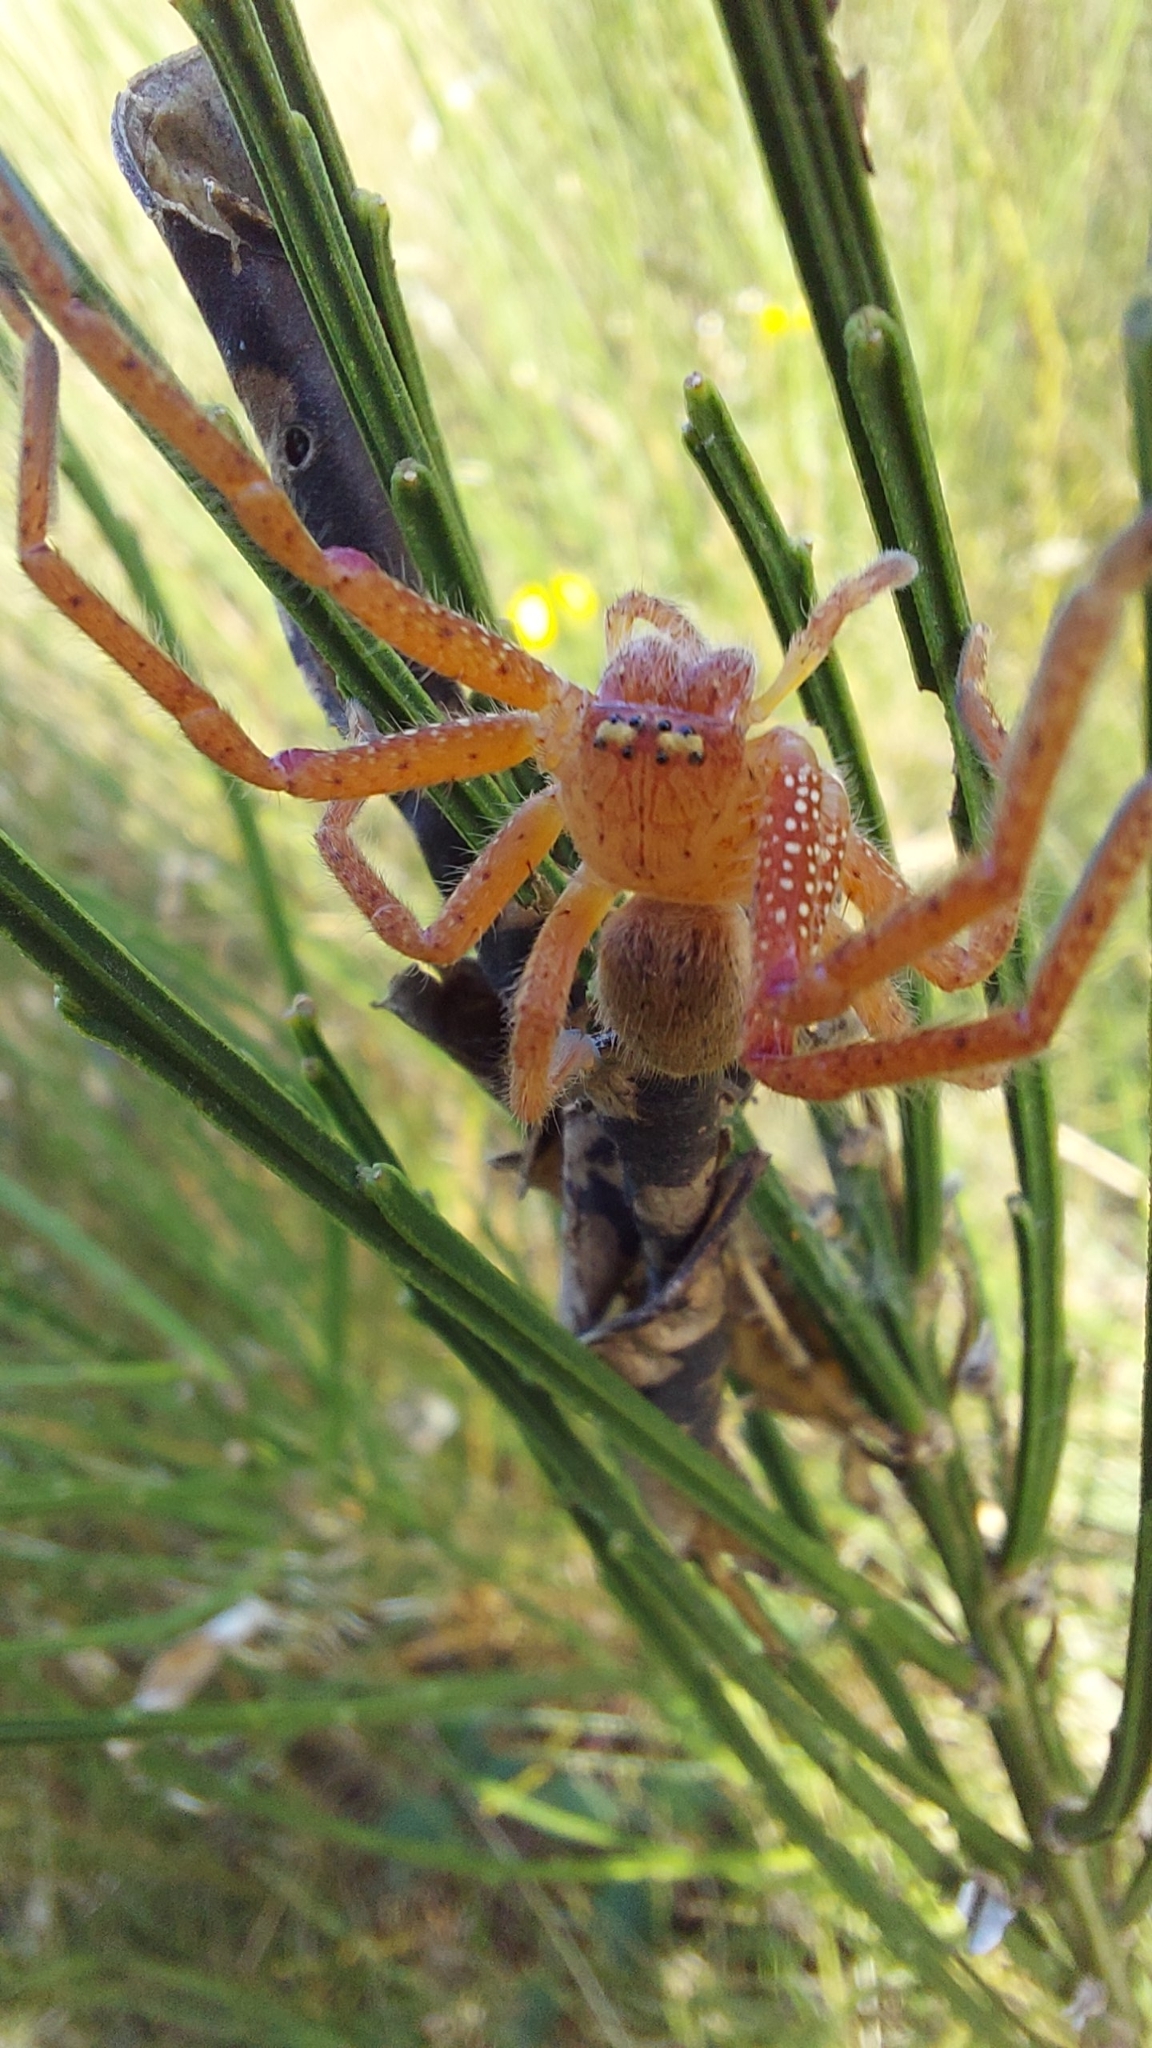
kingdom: Animalia
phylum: Arthropoda
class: Arachnida
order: Araneae
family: Sparassidae
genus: Neosparassus
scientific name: Neosparassus diana
